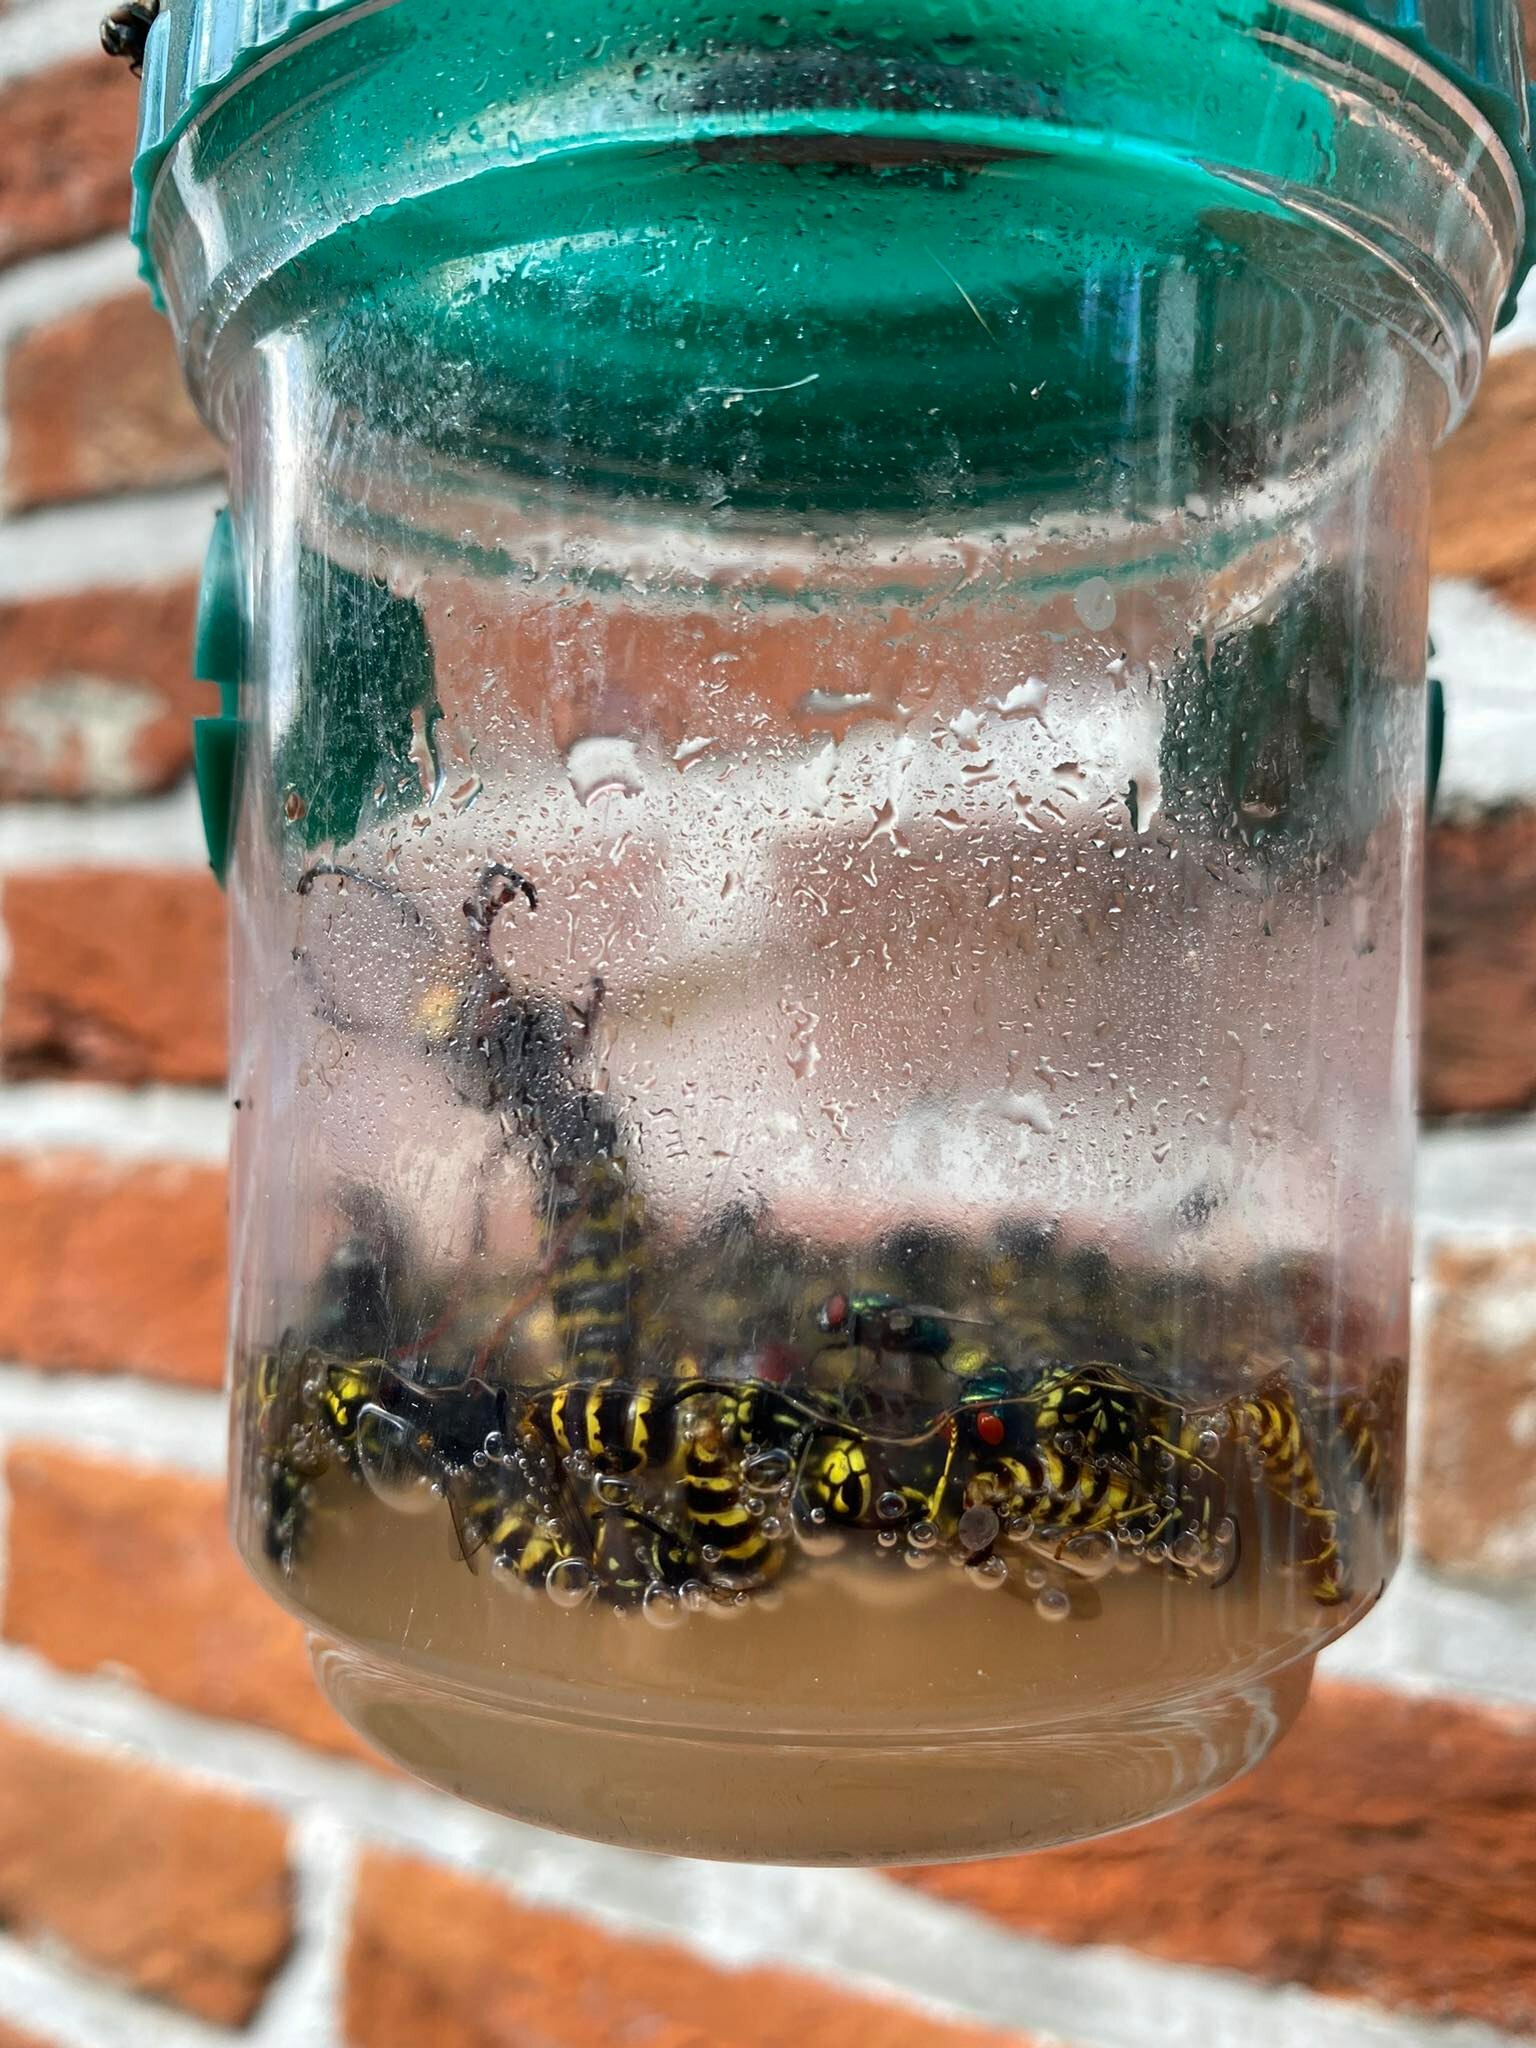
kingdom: Animalia
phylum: Arthropoda
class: Insecta
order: Hymenoptera
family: Vespidae
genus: Vespa
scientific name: Vespa crabro
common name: Hornet
